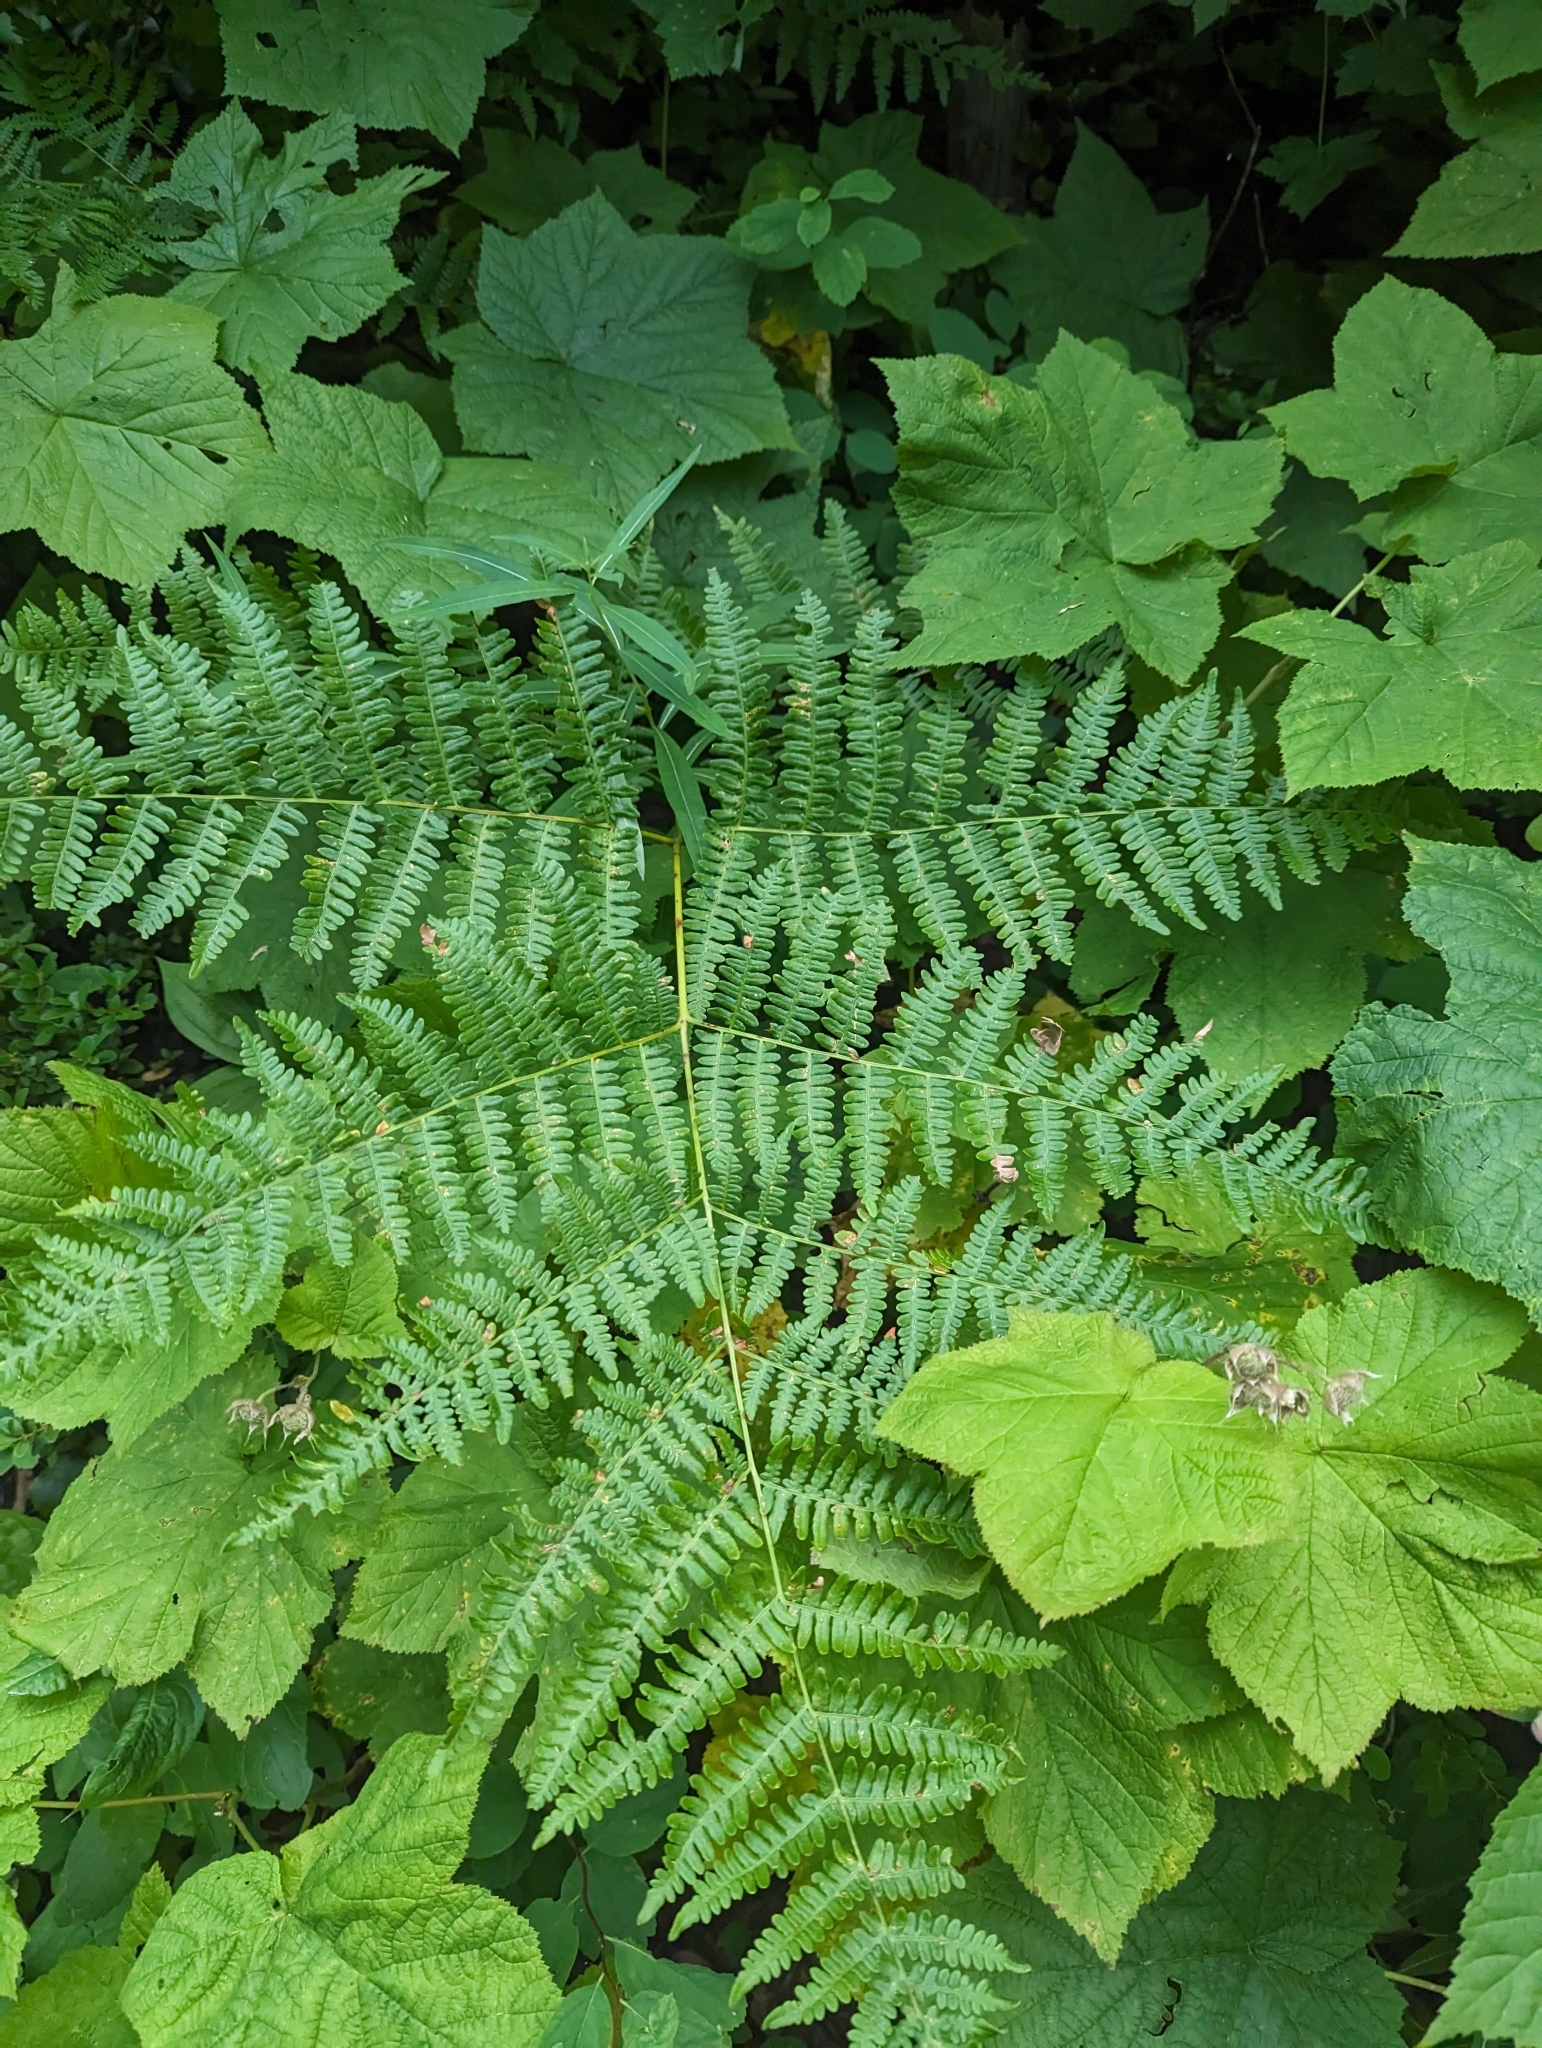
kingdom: Plantae
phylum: Tracheophyta
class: Polypodiopsida
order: Polypodiales
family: Dennstaedtiaceae
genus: Pteridium
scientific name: Pteridium aquilinum
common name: Bracken
